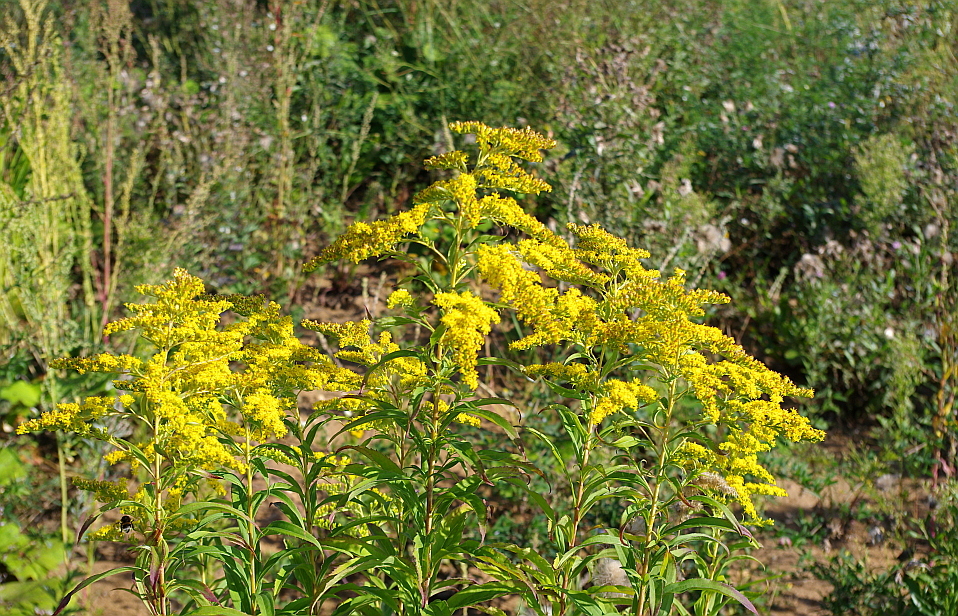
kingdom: Plantae
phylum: Tracheophyta
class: Magnoliopsida
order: Asterales
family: Asteraceae
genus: Solidago
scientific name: Solidago gigantea
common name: Giant goldenrod
